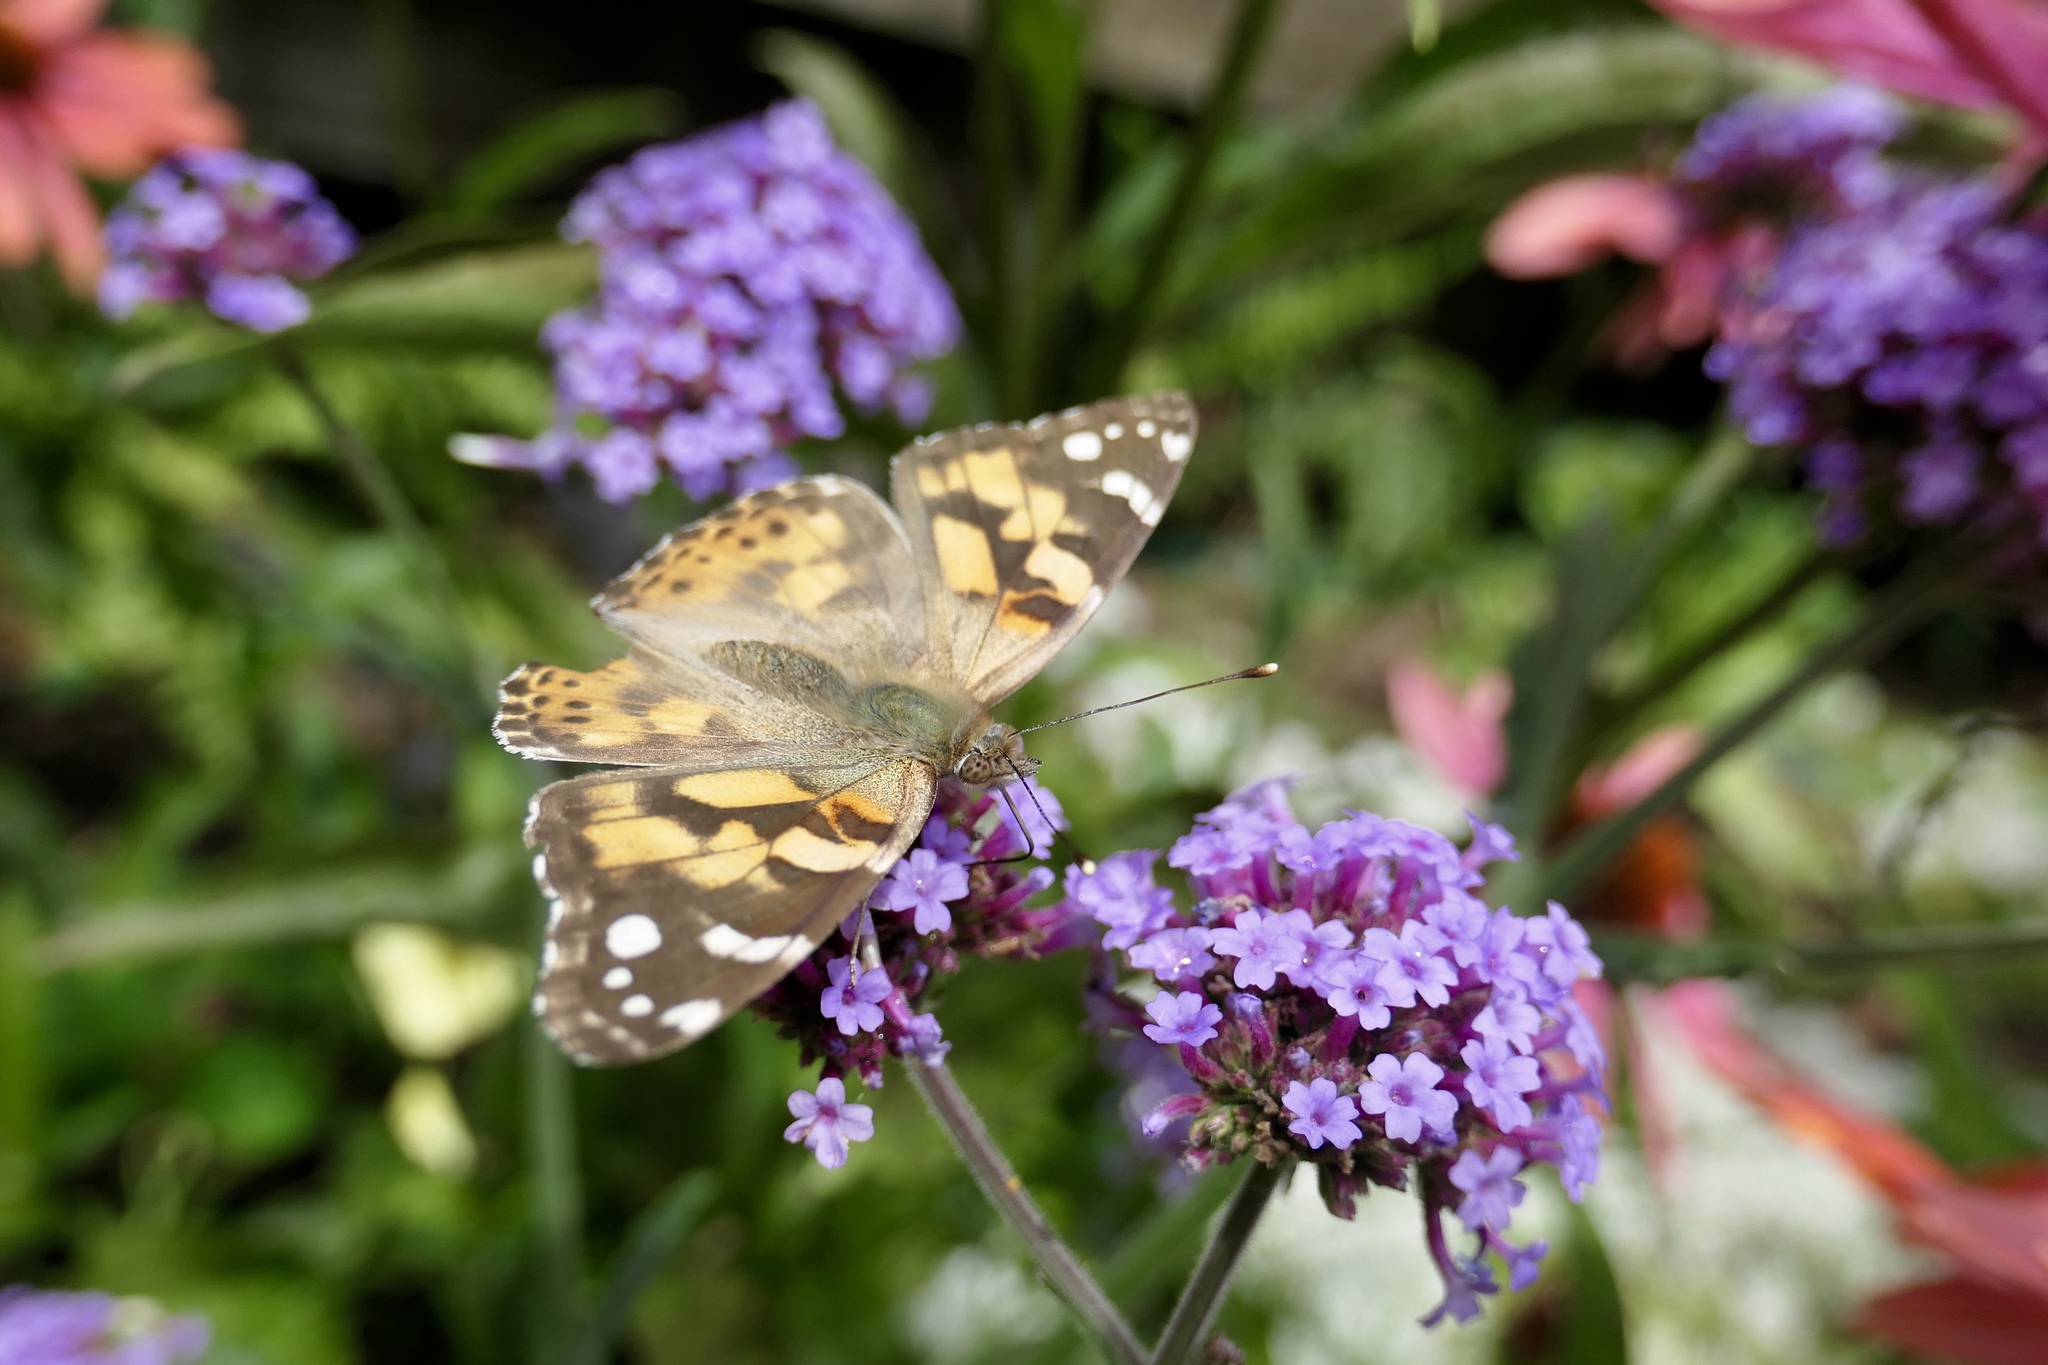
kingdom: Animalia
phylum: Arthropoda
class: Insecta
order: Lepidoptera
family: Nymphalidae
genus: Vanessa
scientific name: Vanessa cardui
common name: Painted lady
